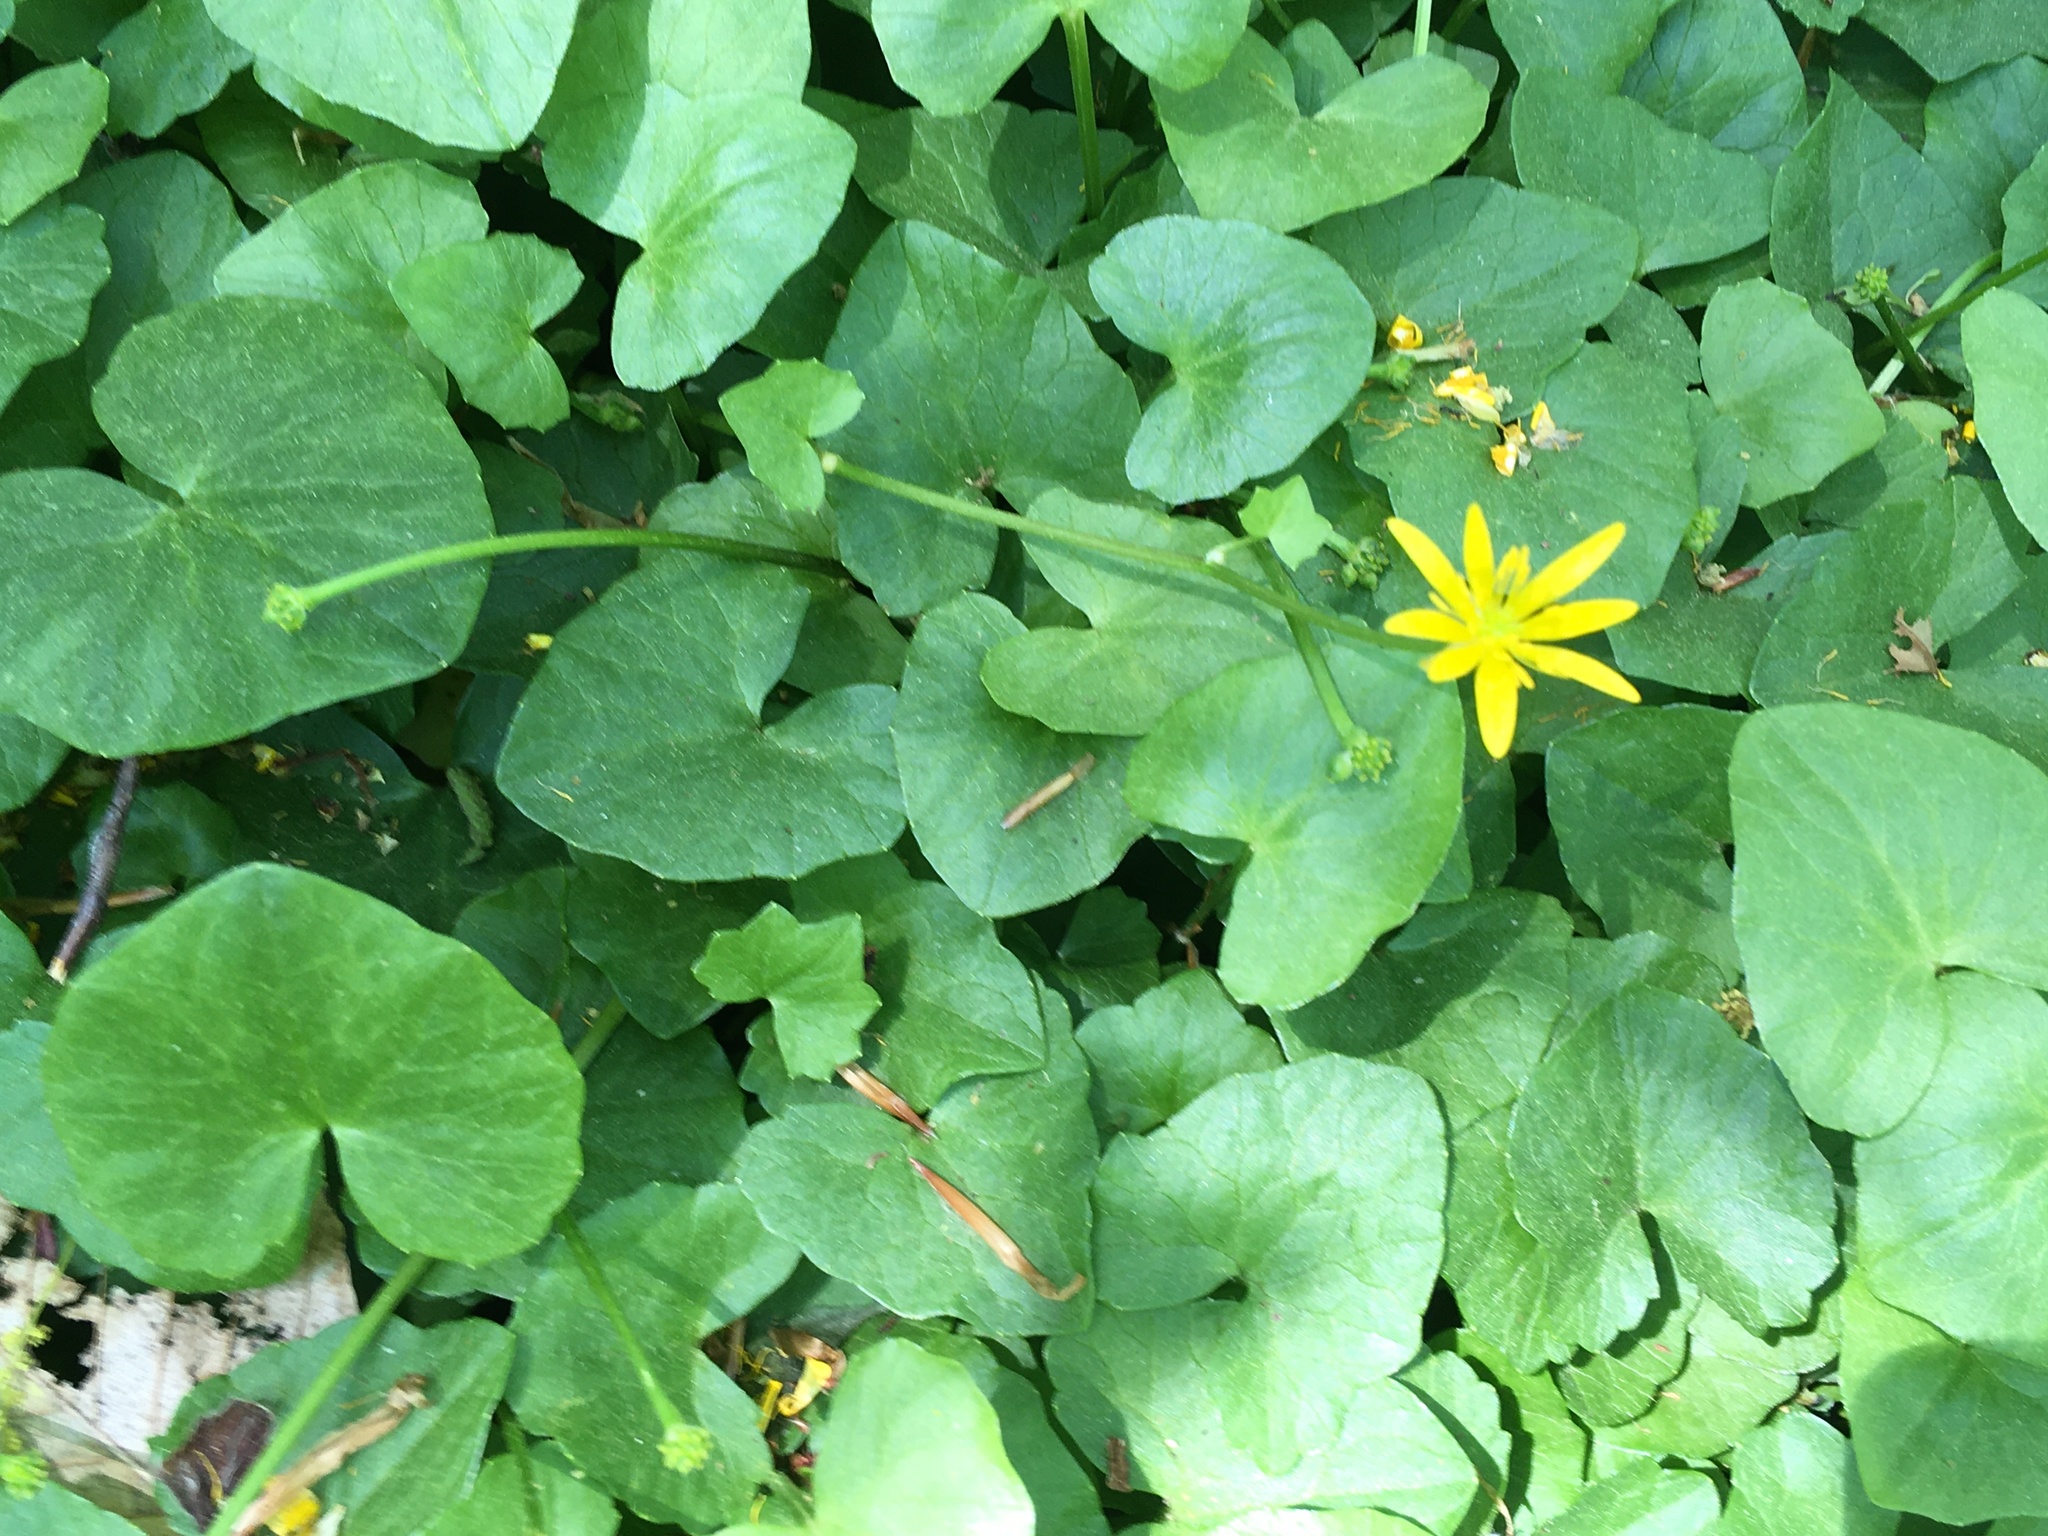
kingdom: Plantae
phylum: Tracheophyta
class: Magnoliopsida
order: Ranunculales
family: Ranunculaceae
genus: Ficaria
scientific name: Ficaria verna
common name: Lesser celandine
